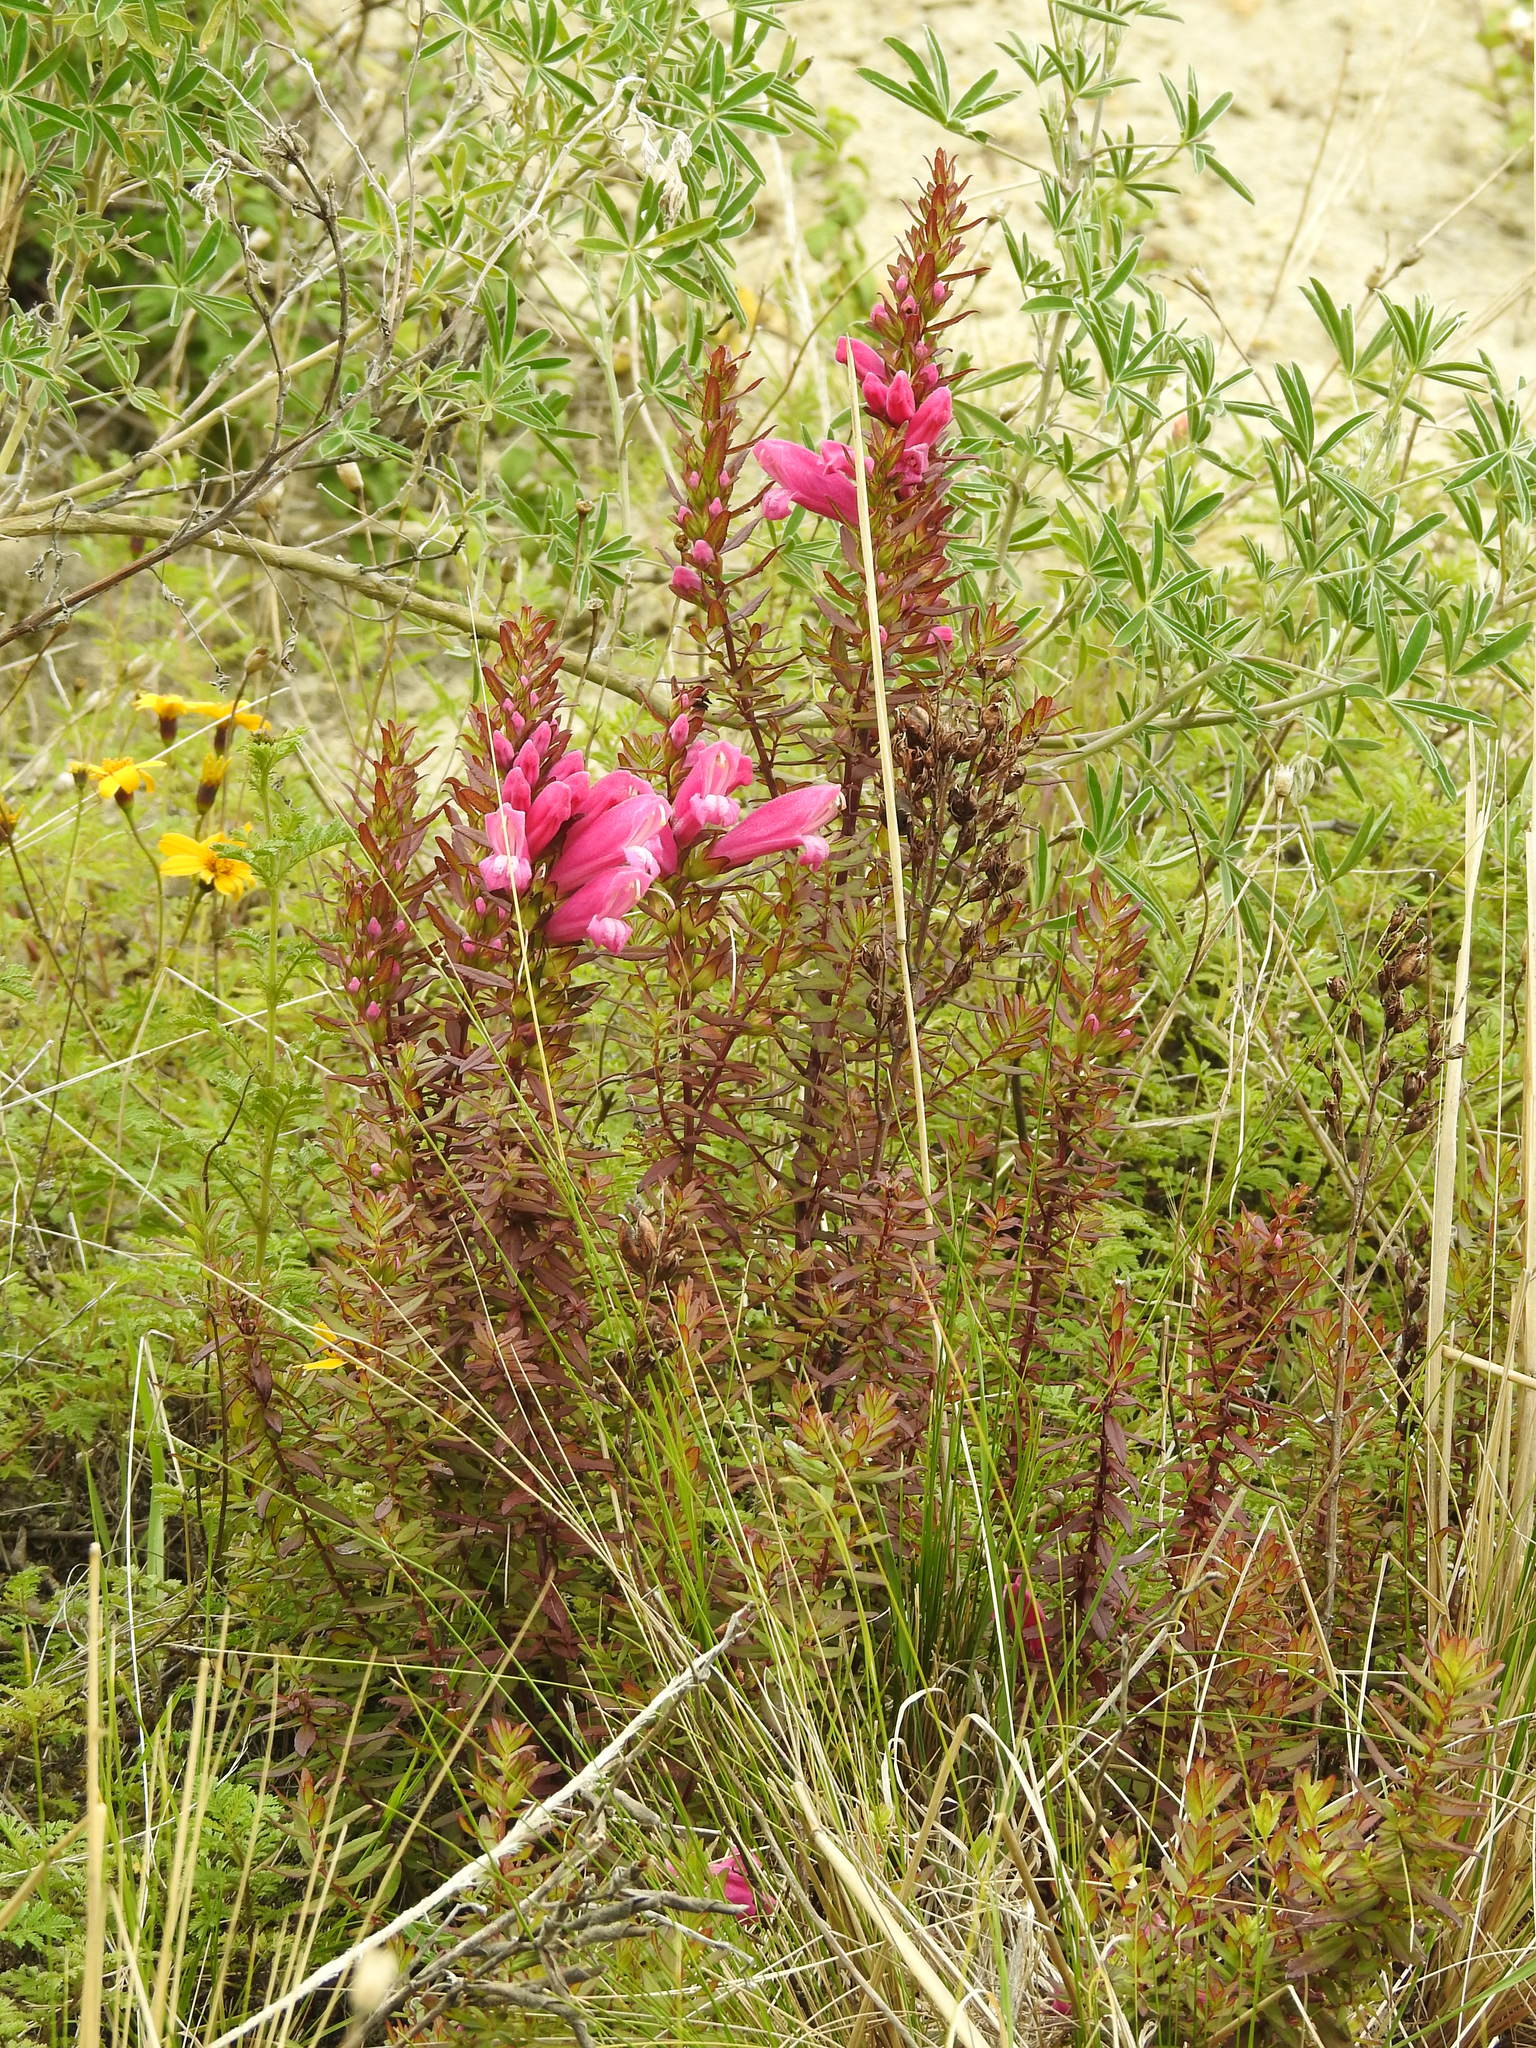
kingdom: Plantae
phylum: Tracheophyta
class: Magnoliopsida
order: Lamiales
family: Orobanchaceae
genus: Lamourouxia
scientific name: Lamourouxia virgata
